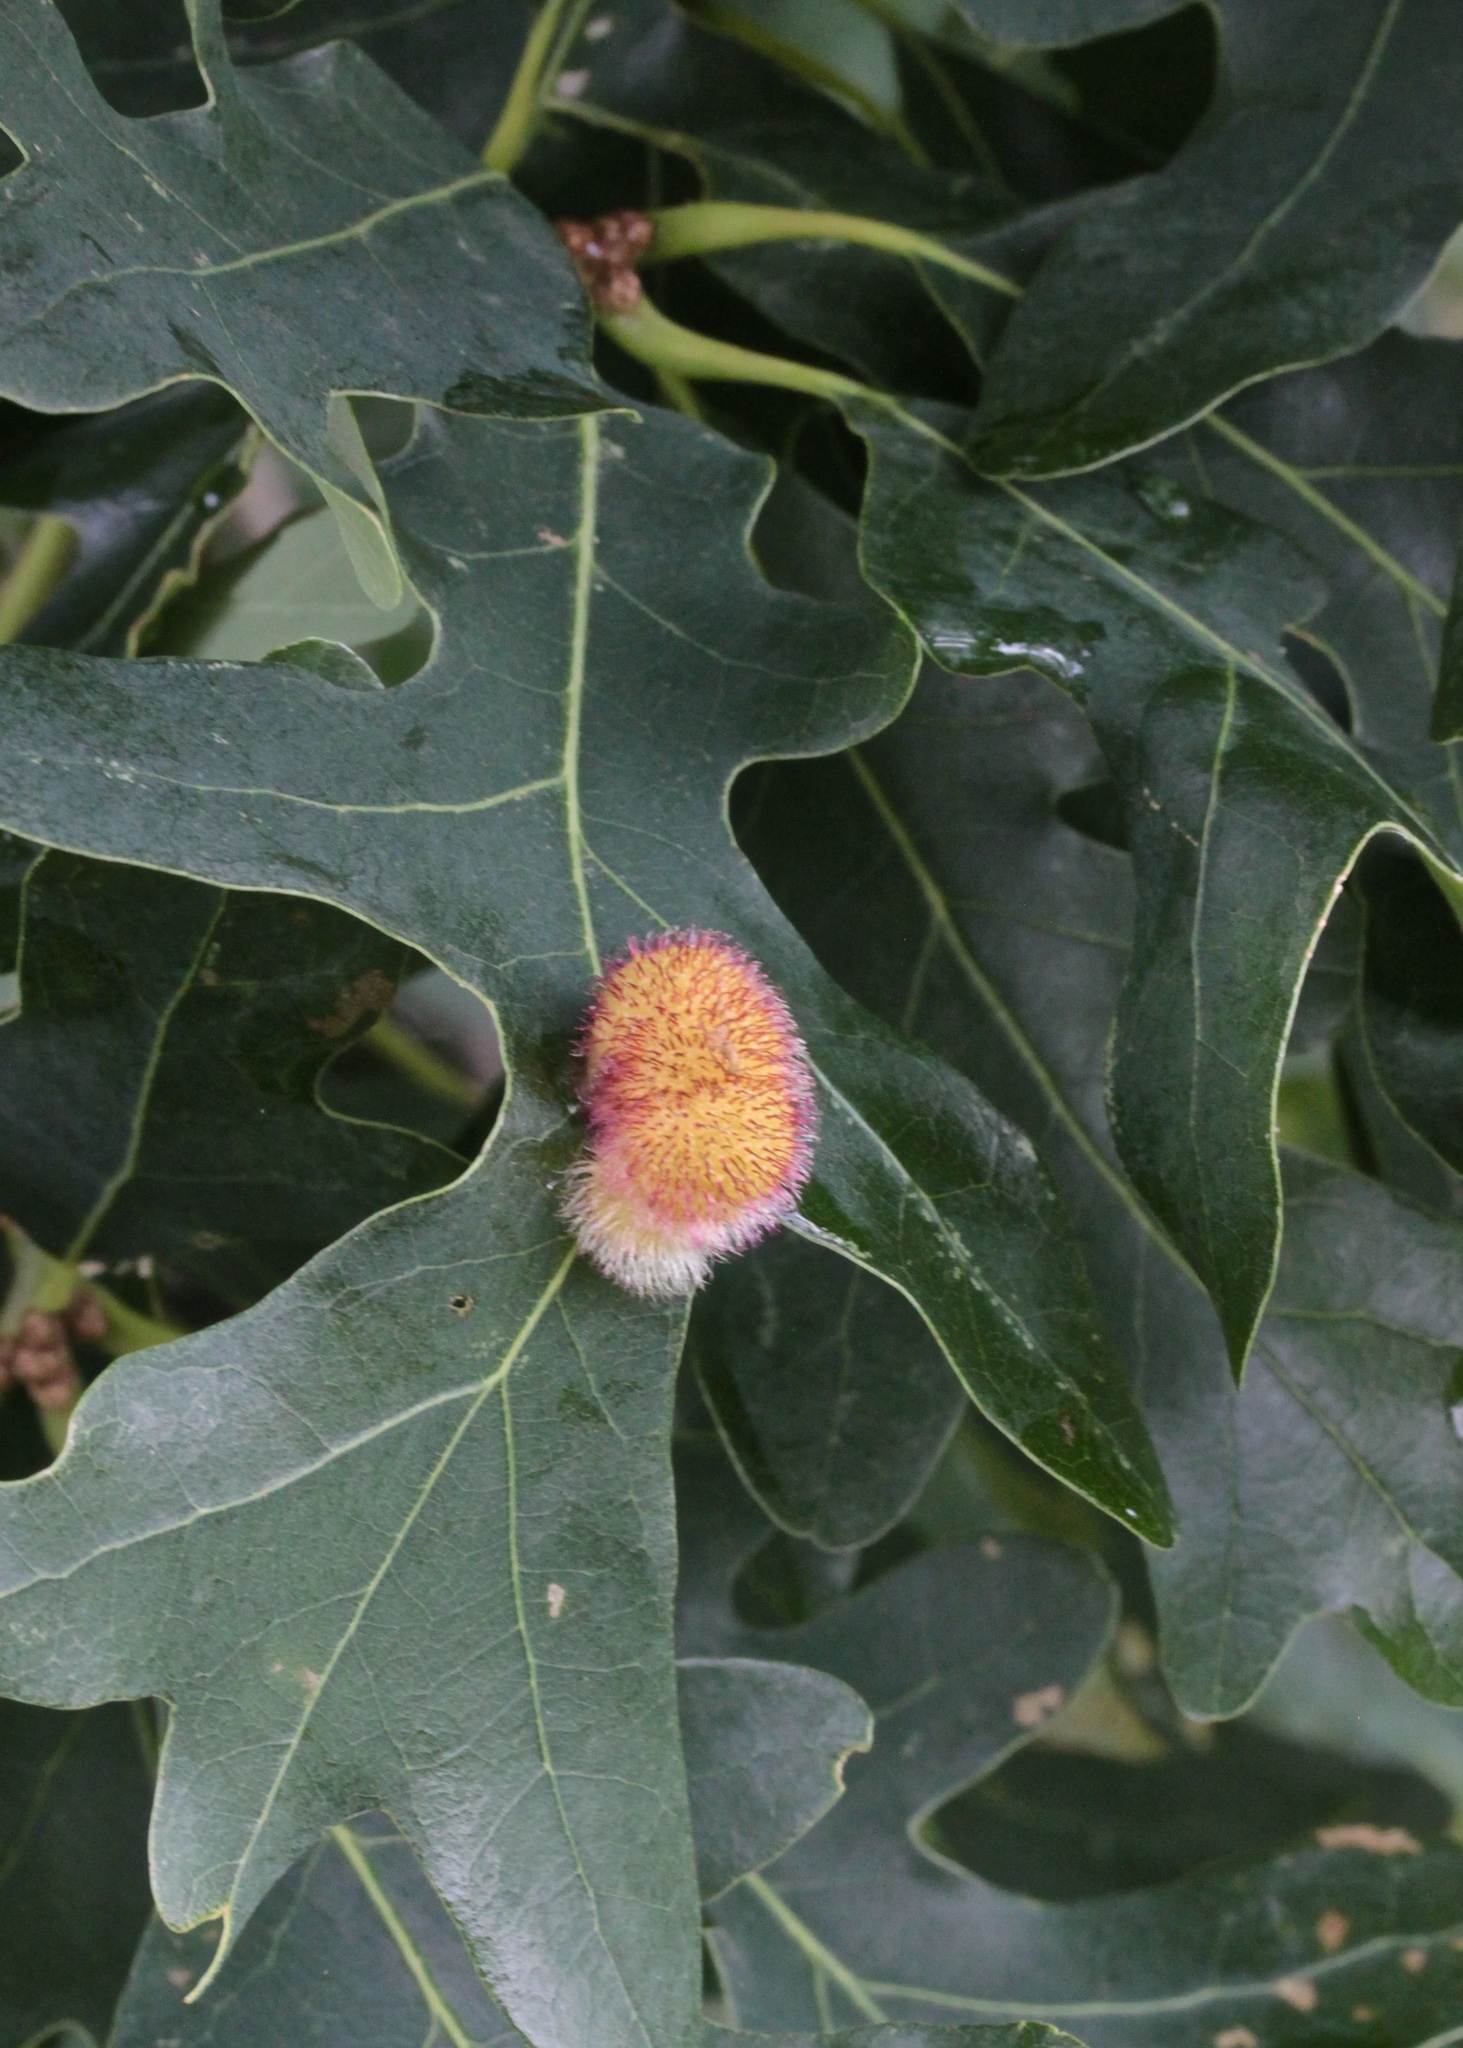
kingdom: Animalia
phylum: Arthropoda
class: Insecta
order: Hymenoptera
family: Cynipidae
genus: Acraspis
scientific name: Acraspis erinacei
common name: Hedgehog gall wasp
